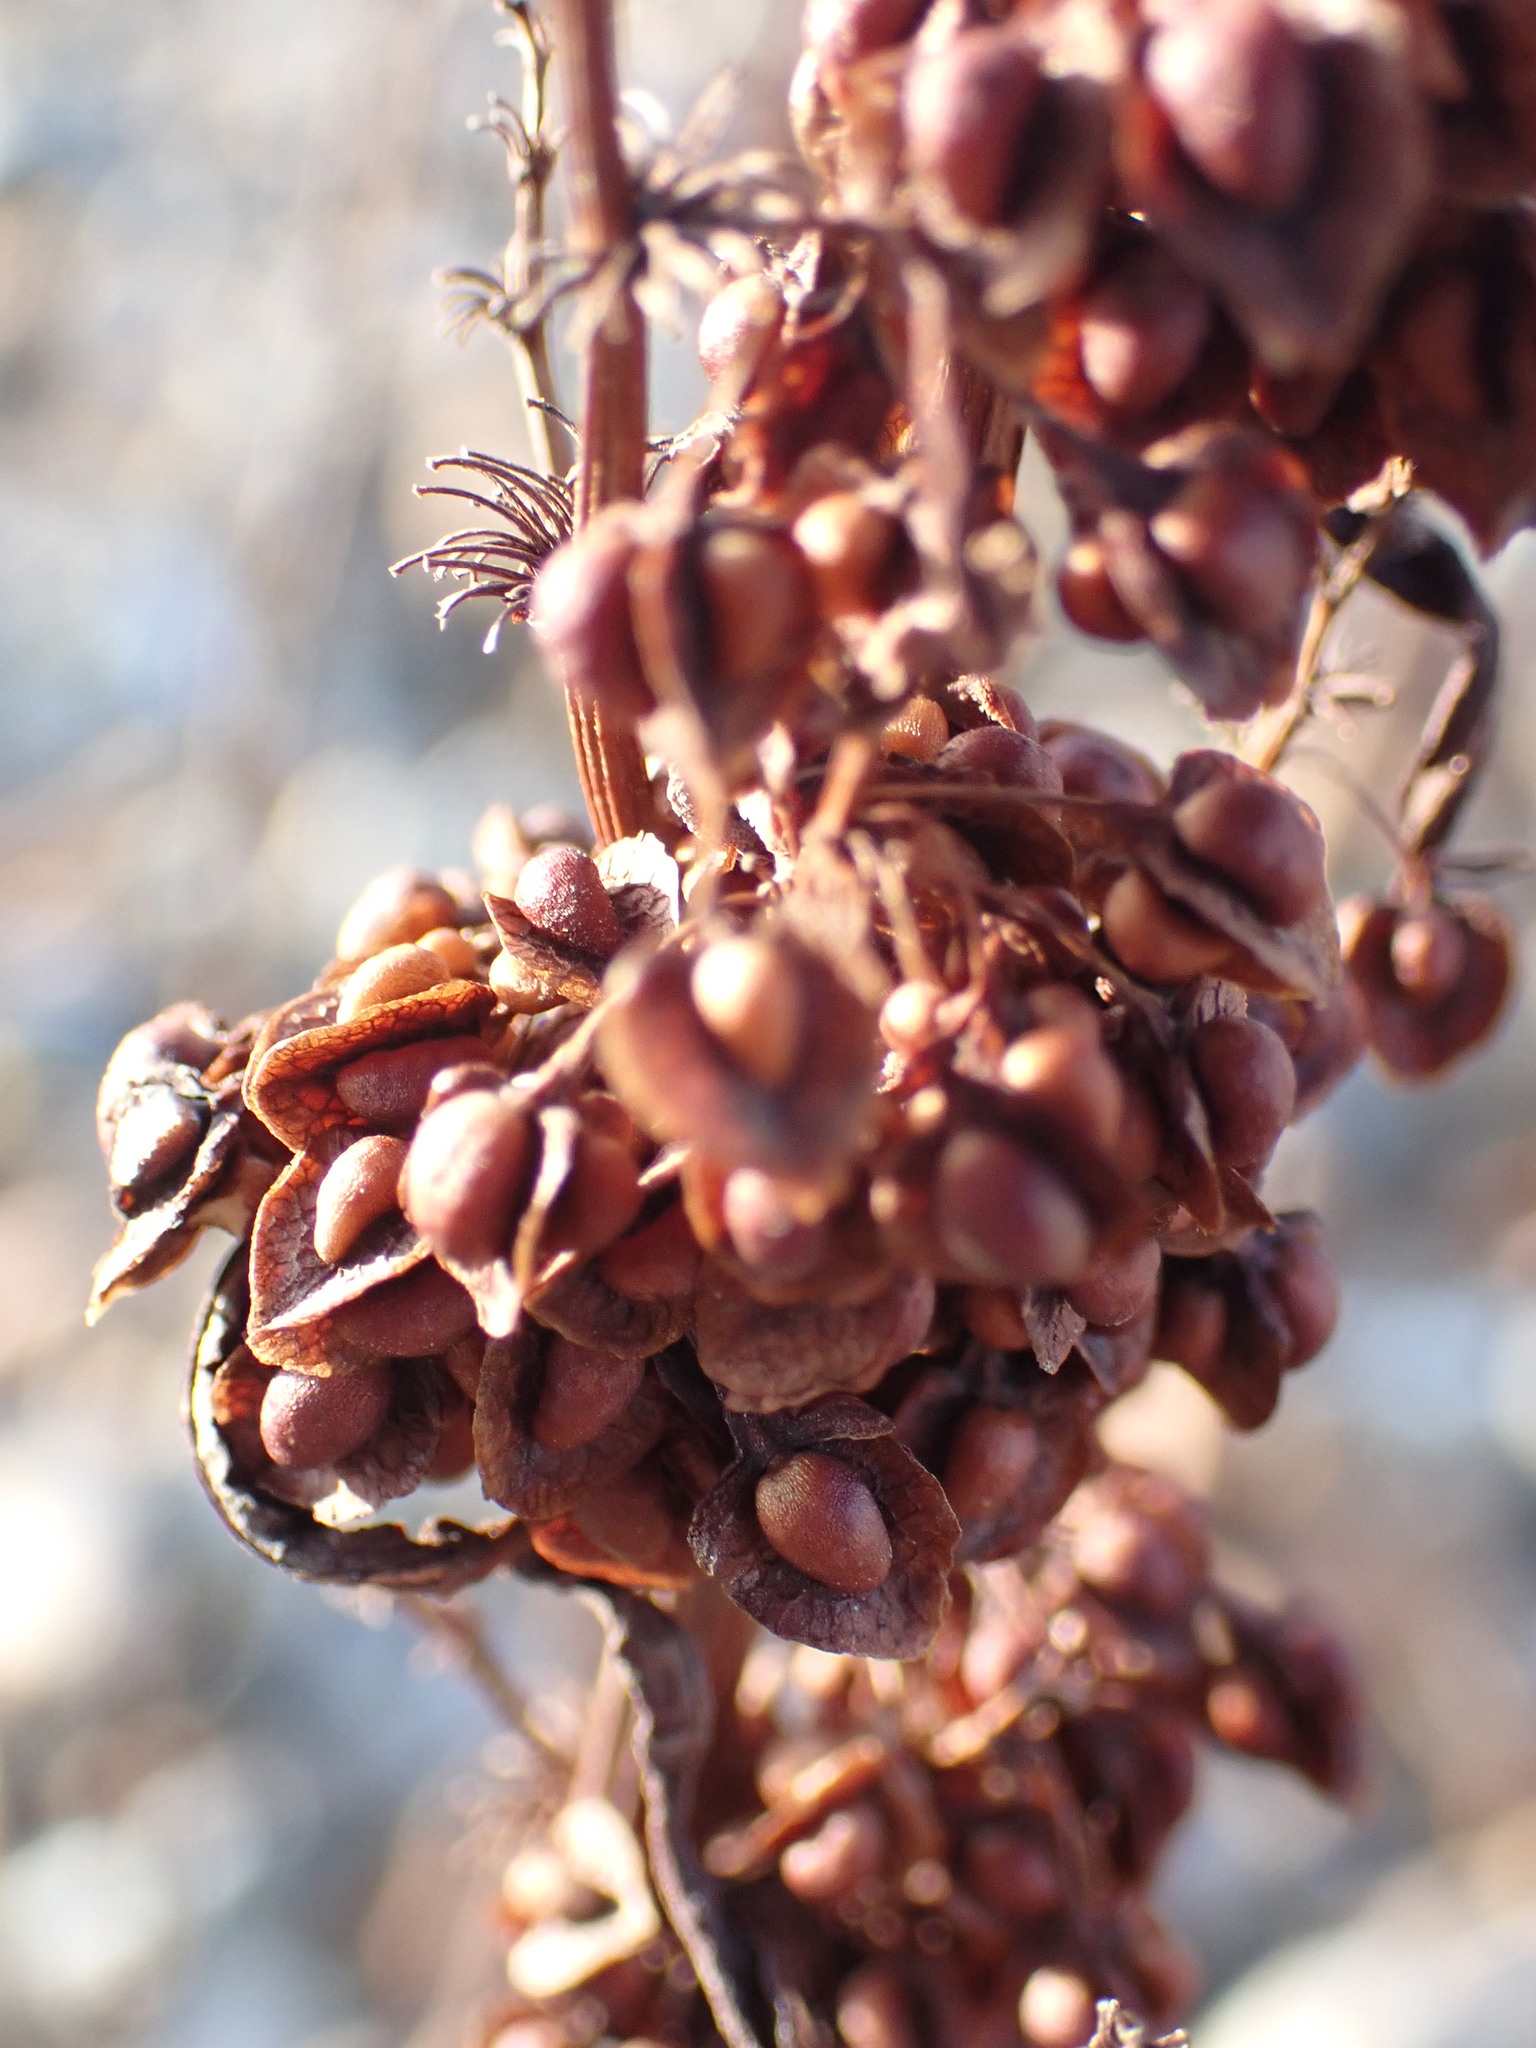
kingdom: Plantae
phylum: Tracheophyta
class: Magnoliopsida
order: Caryophyllales
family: Polygonaceae
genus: Rumex
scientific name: Rumex crispus
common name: Curled dock
